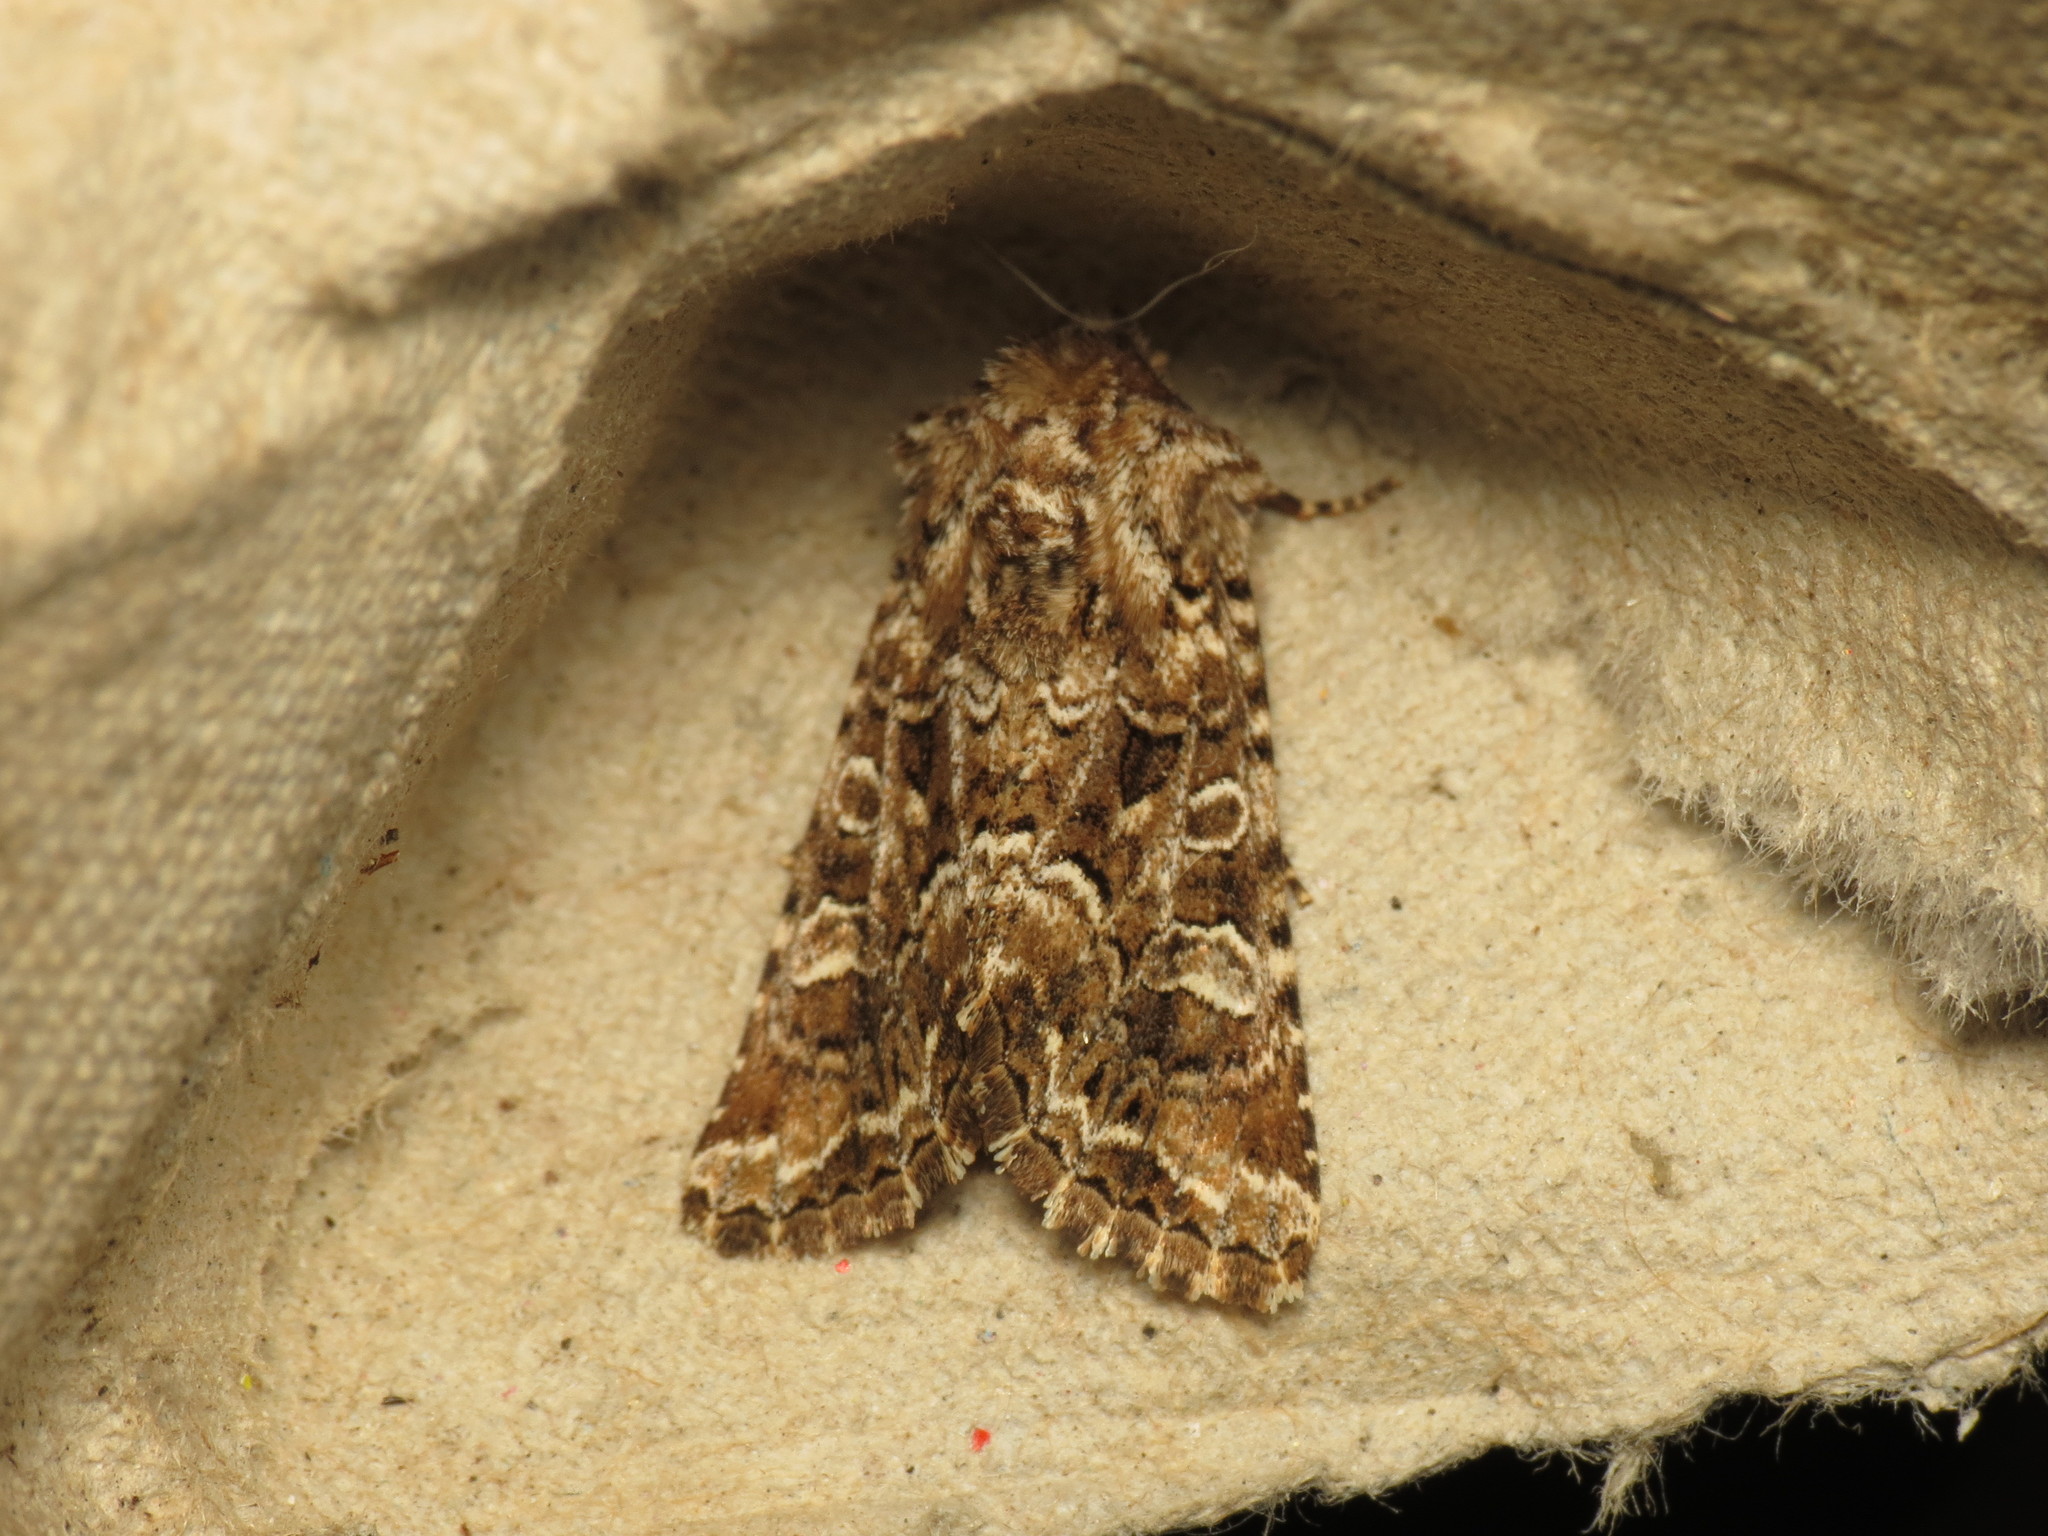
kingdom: Animalia
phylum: Arthropoda
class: Insecta
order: Lepidoptera
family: Noctuidae
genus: Hadena
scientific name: Hadena perplexa
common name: Tawny shears
